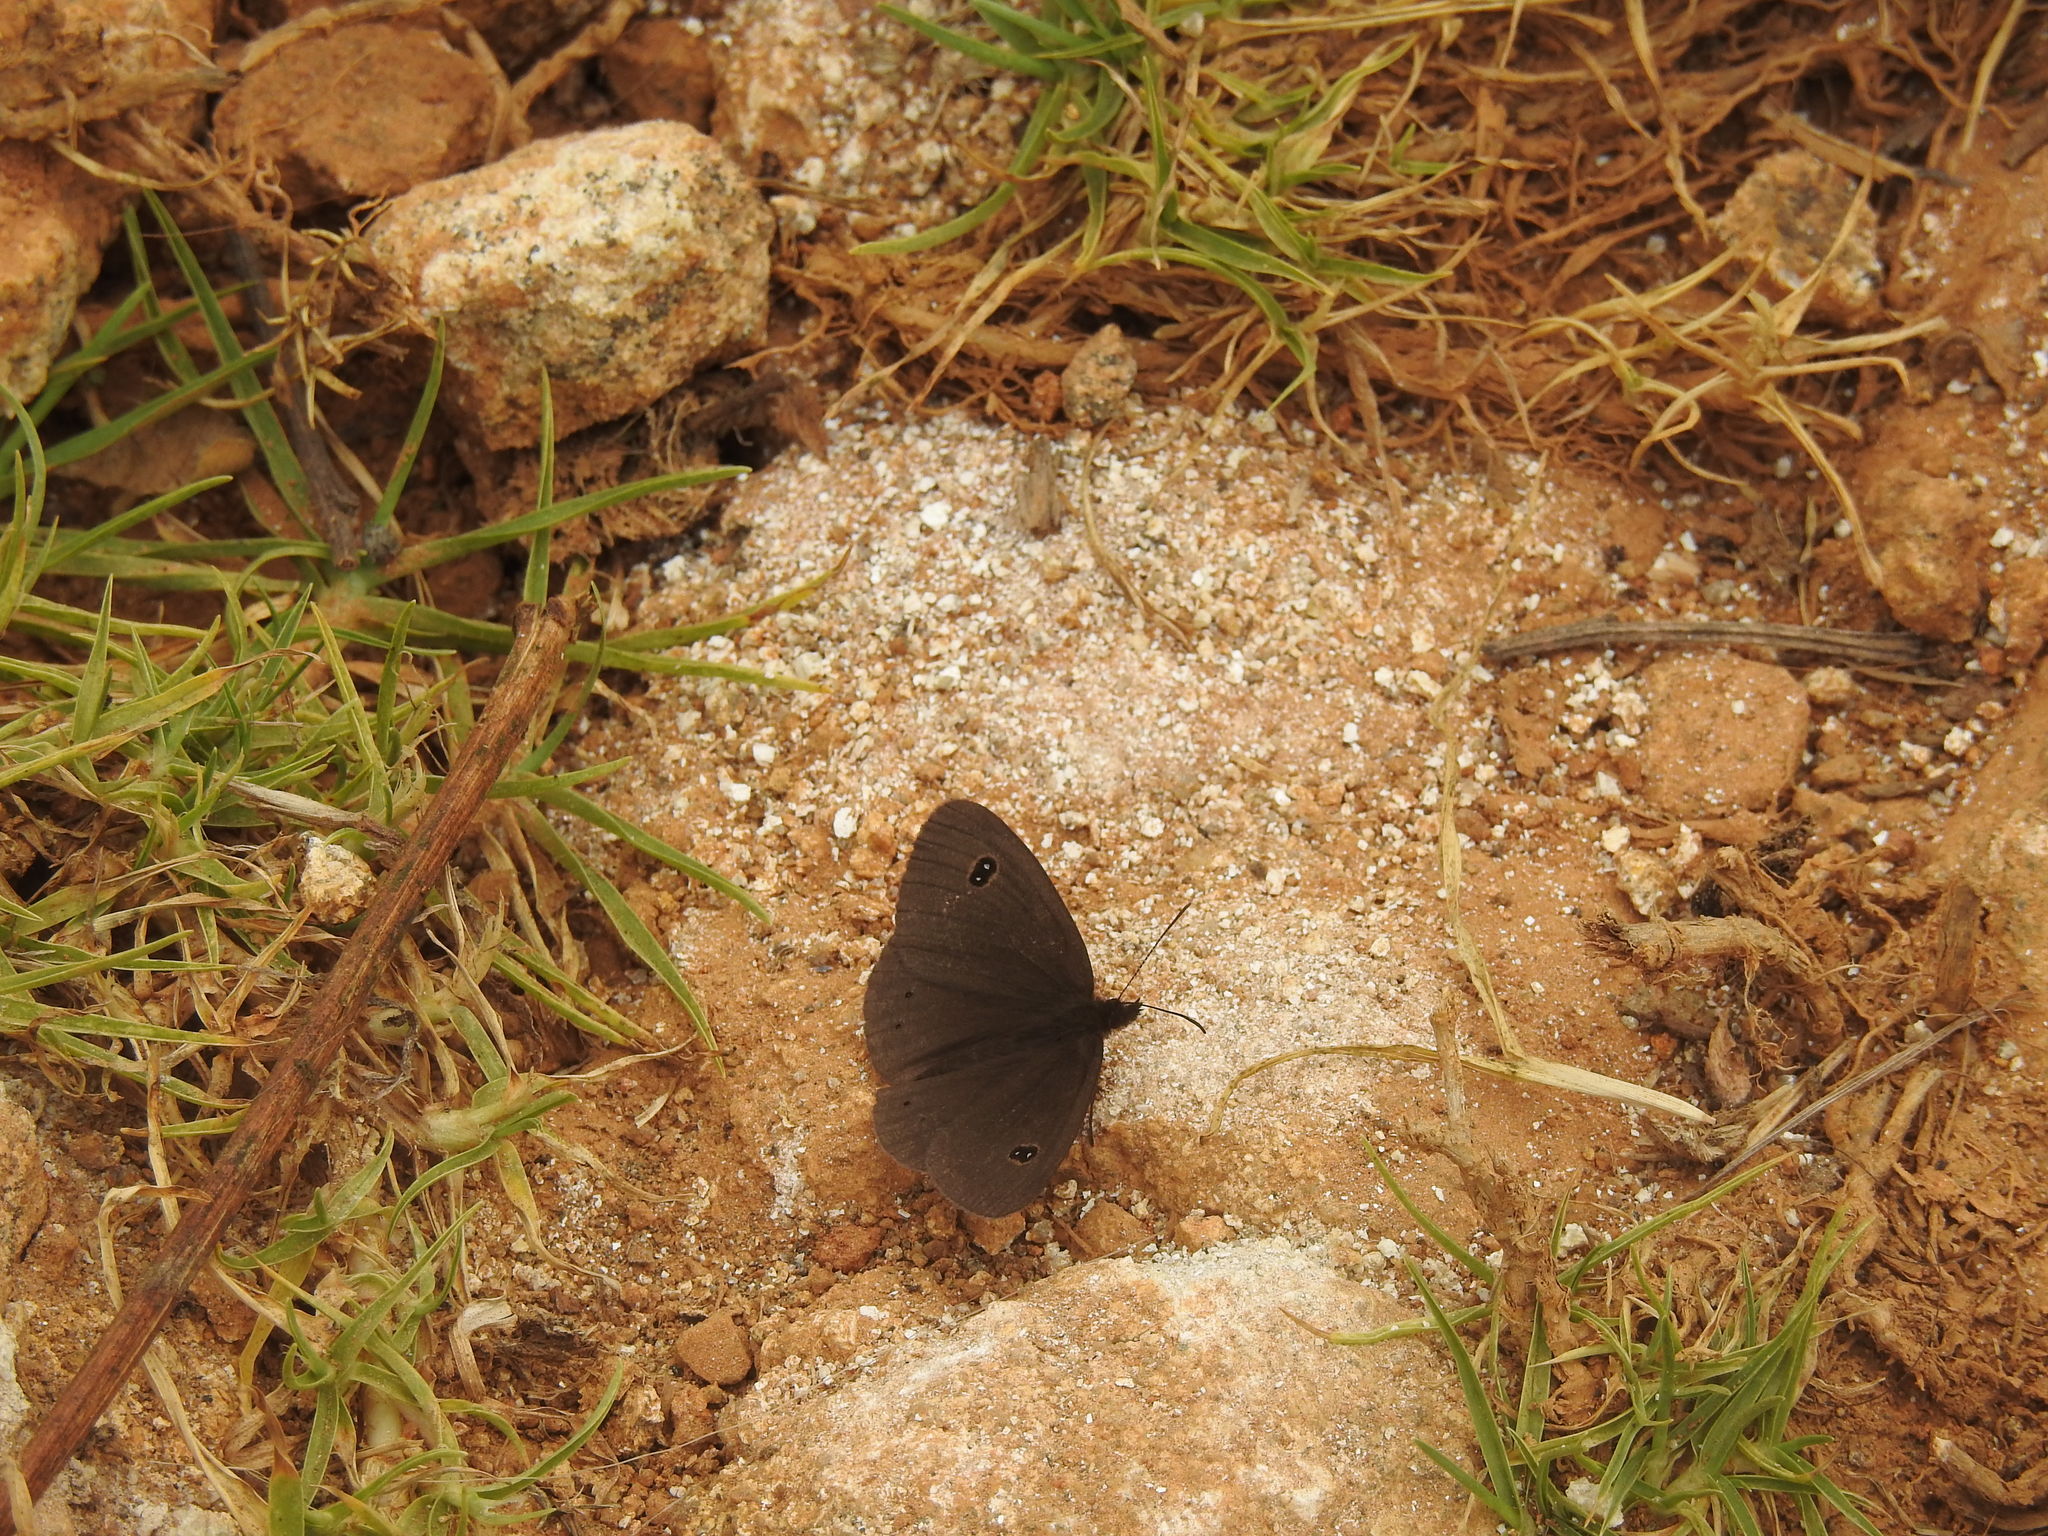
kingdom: Animalia
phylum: Arthropoda
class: Insecta
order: Lepidoptera
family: Nymphalidae
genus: Ypthima
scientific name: Ypthima ypthimoides
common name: Palni four-ring
